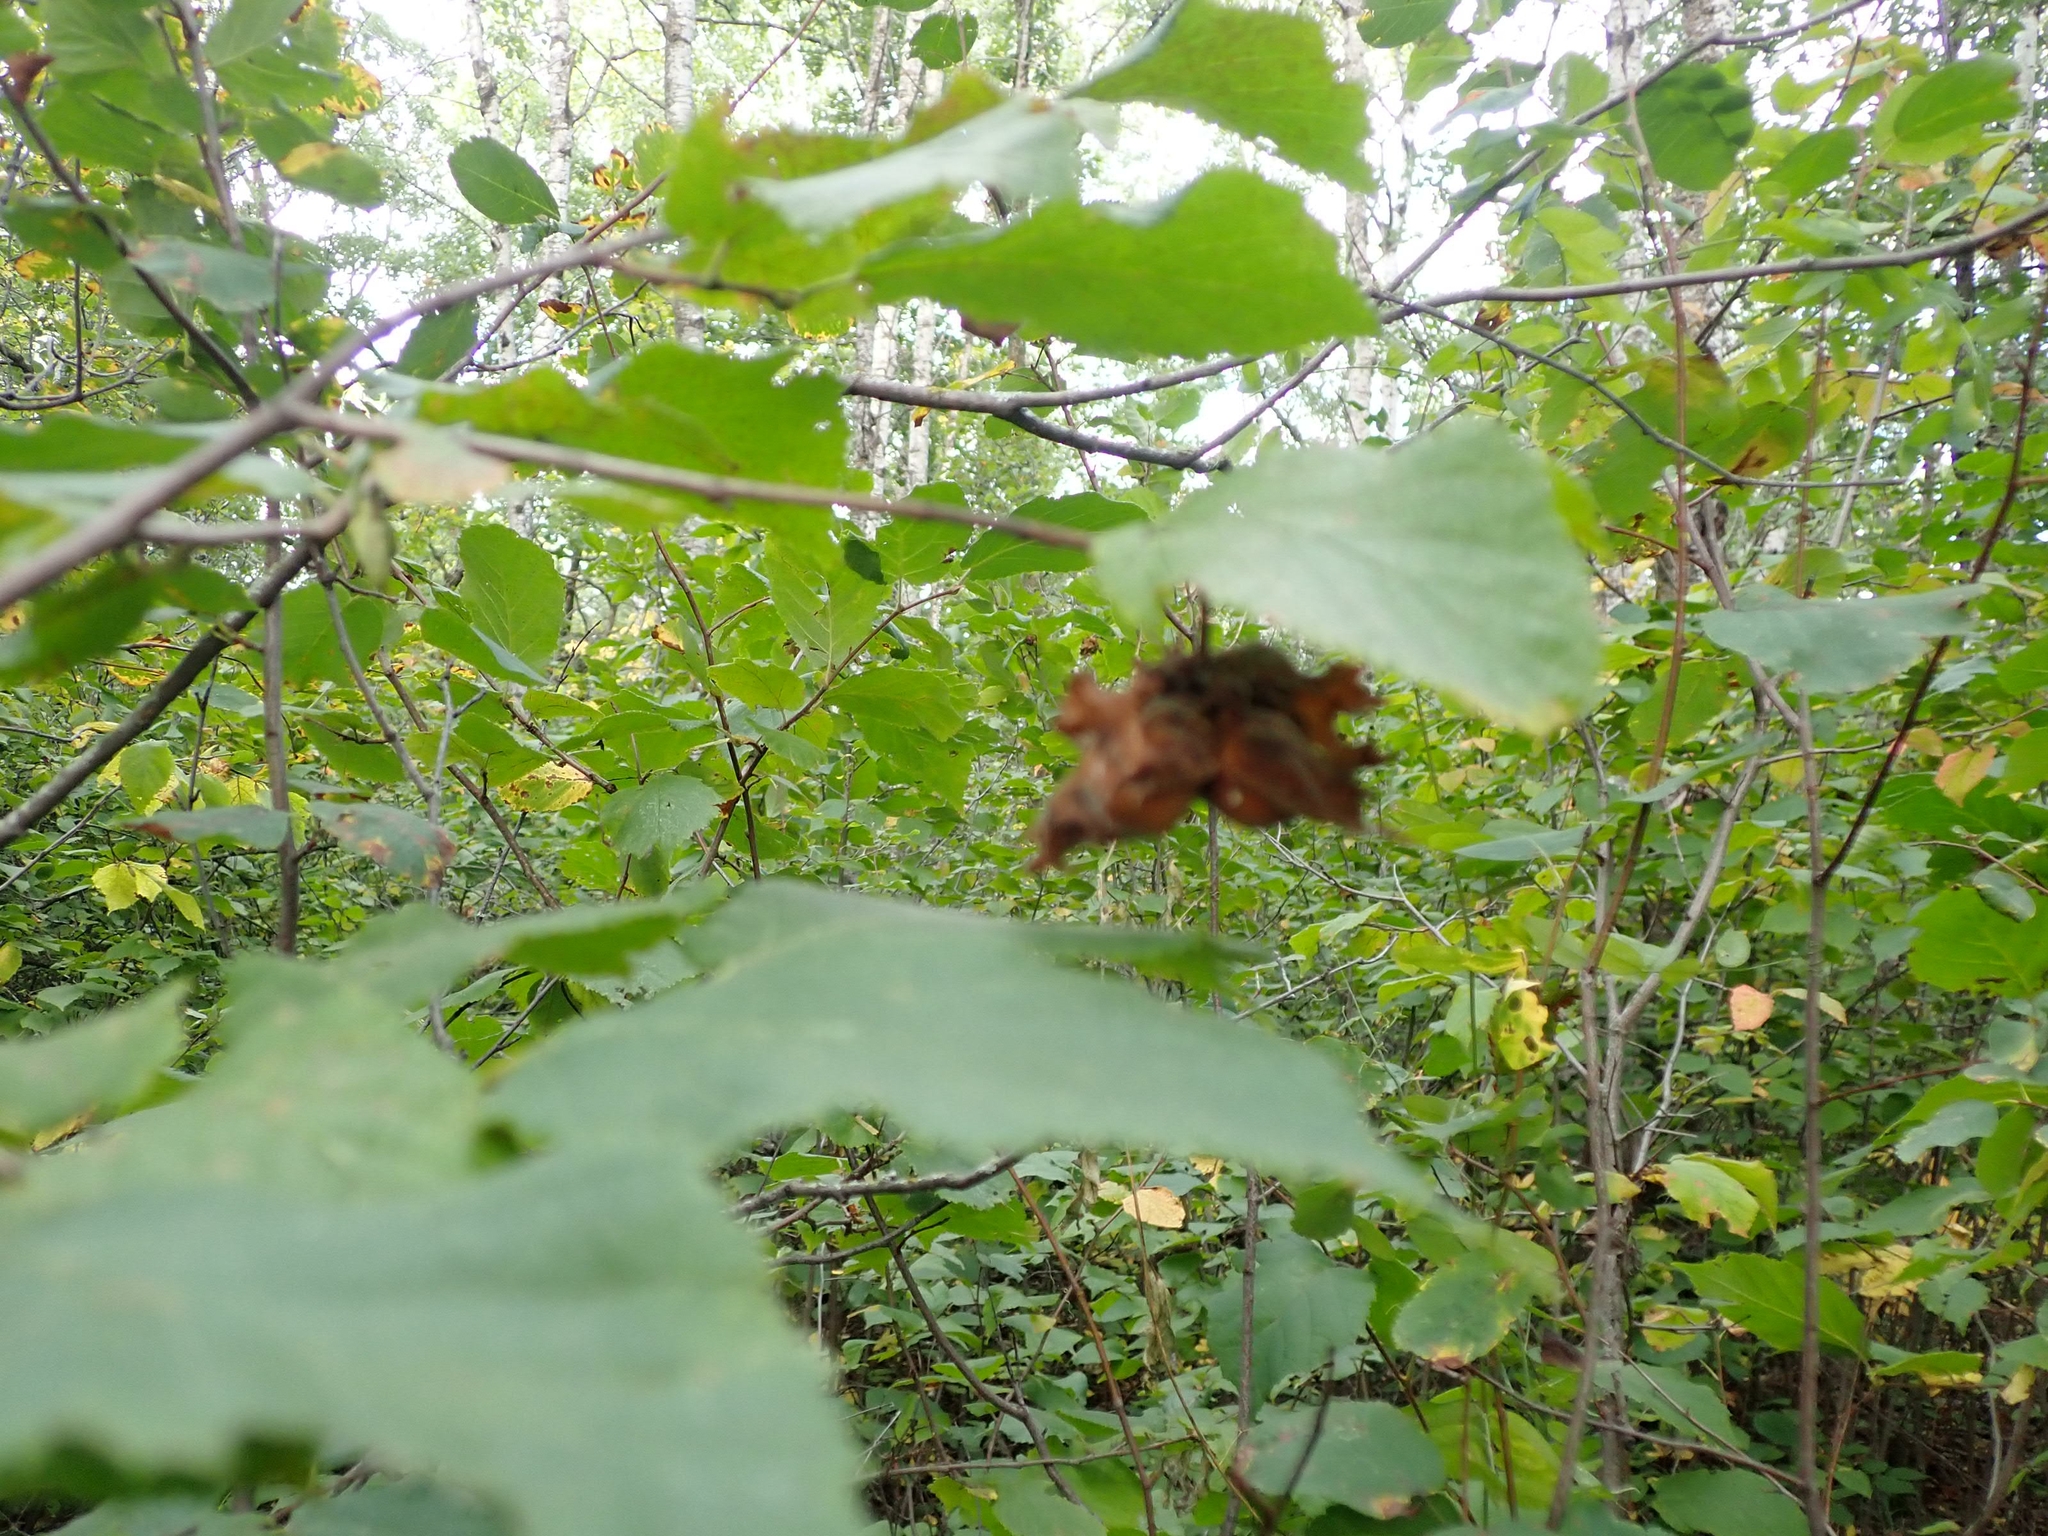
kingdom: Plantae
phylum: Tracheophyta
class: Magnoliopsida
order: Fagales
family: Betulaceae
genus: Corylus
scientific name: Corylus americana
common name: American hazel
